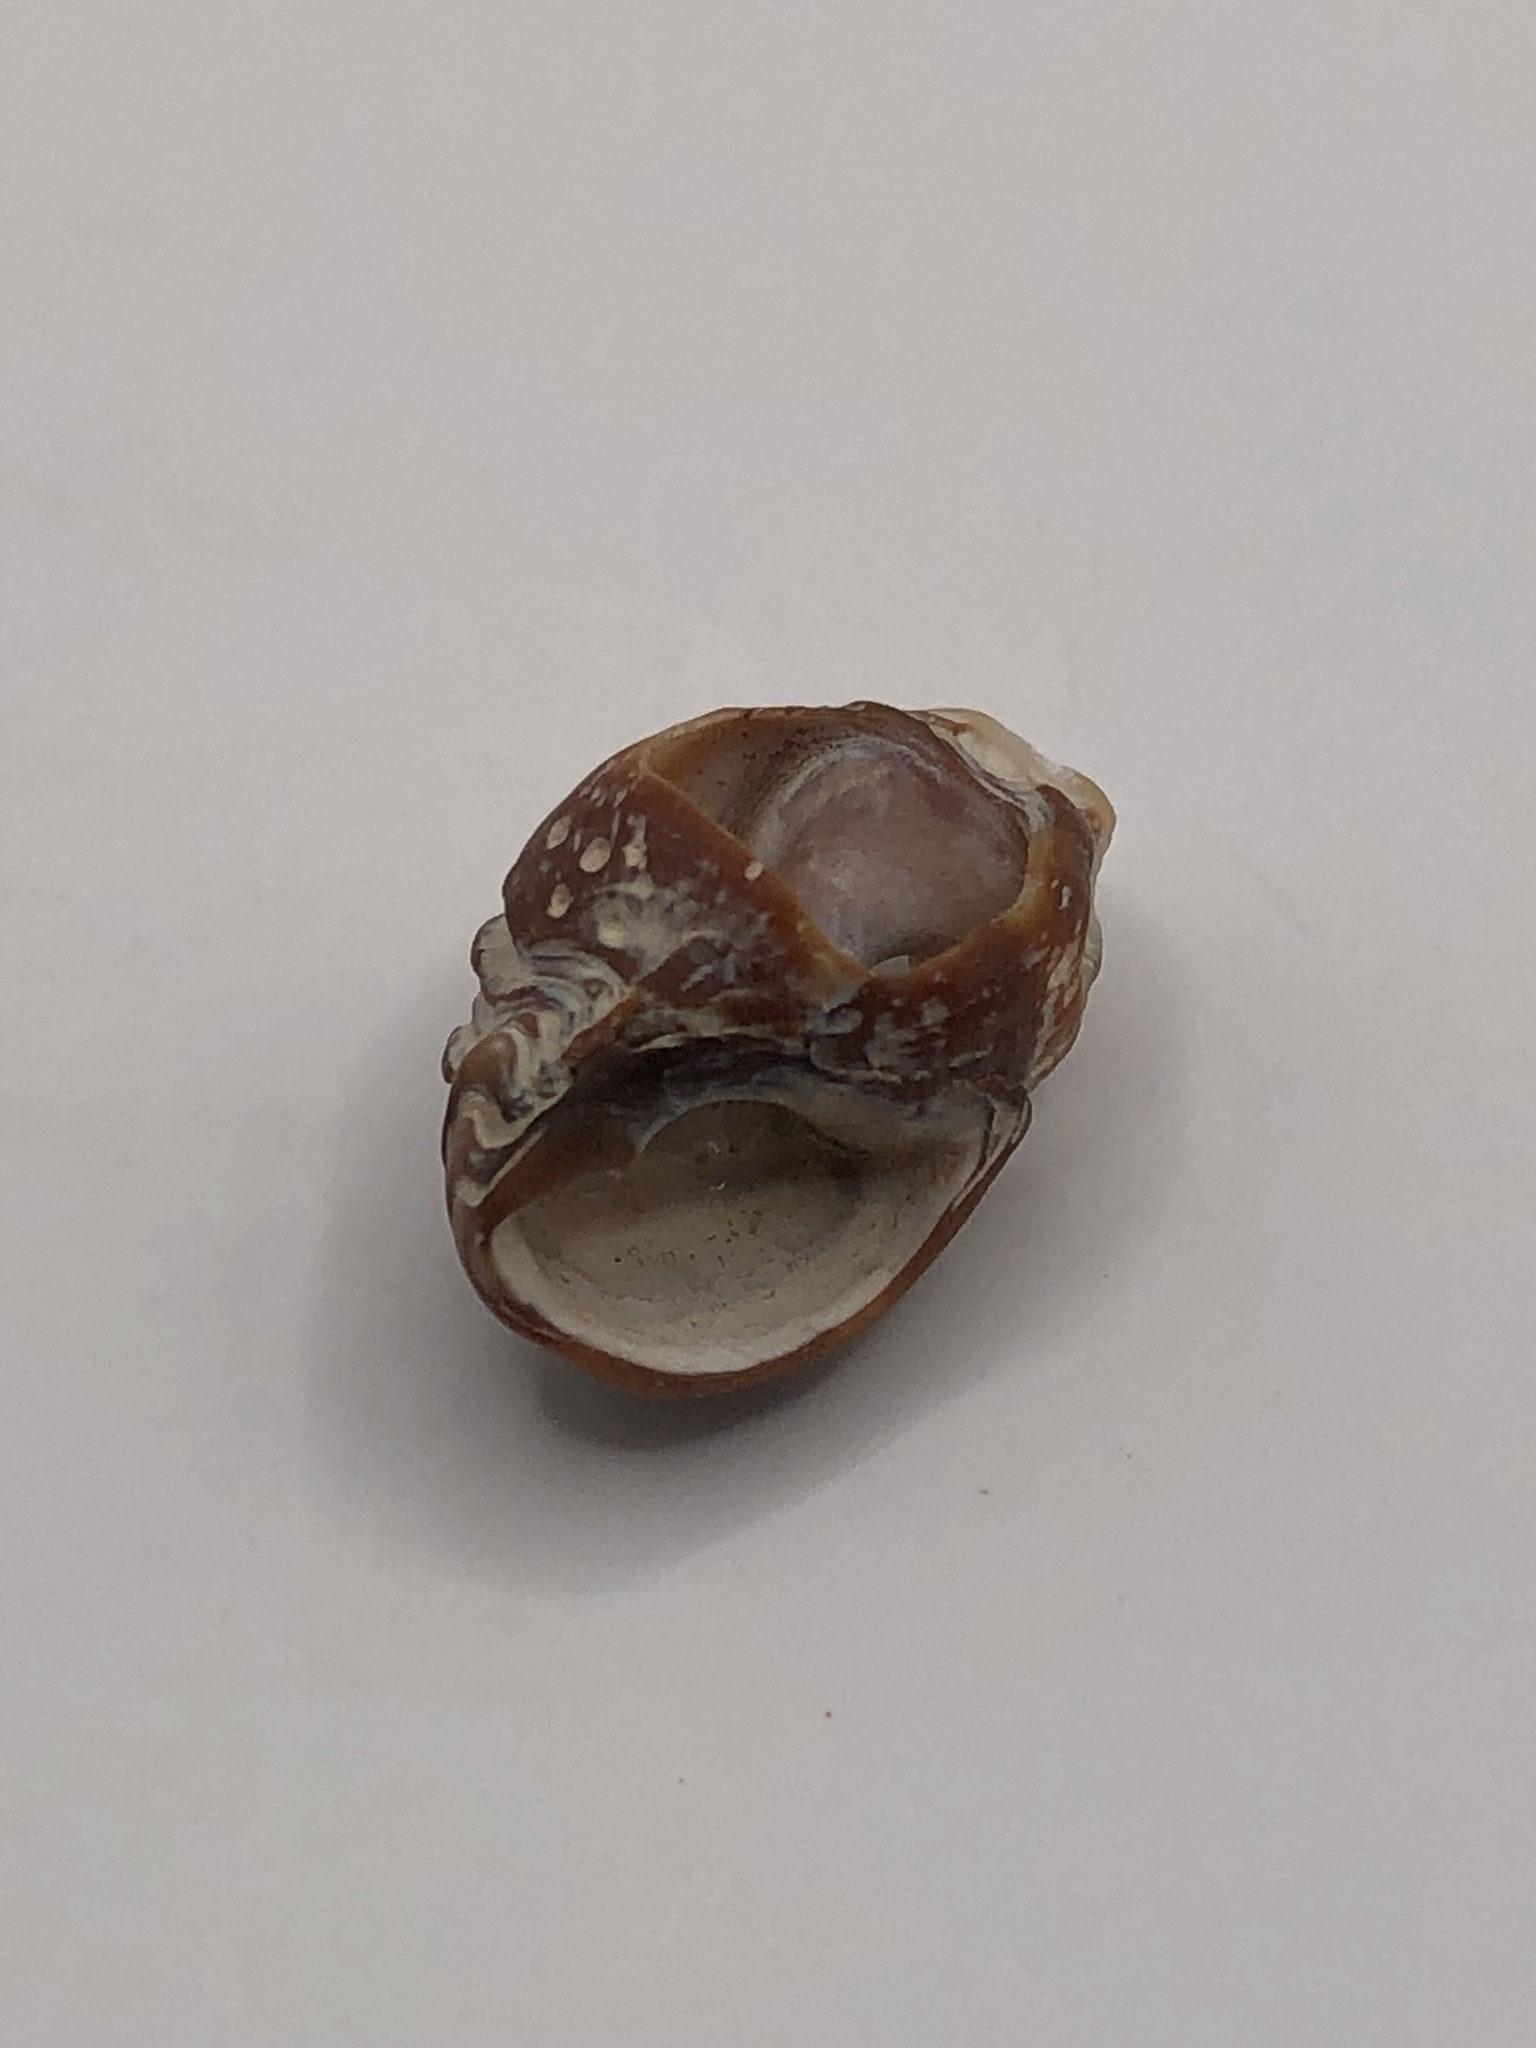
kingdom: Animalia
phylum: Mollusca
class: Gastropoda
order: Neogastropoda
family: Nassariidae
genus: Ilyanassa
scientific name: Ilyanassa obsoleta
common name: Eastern mudsnail
